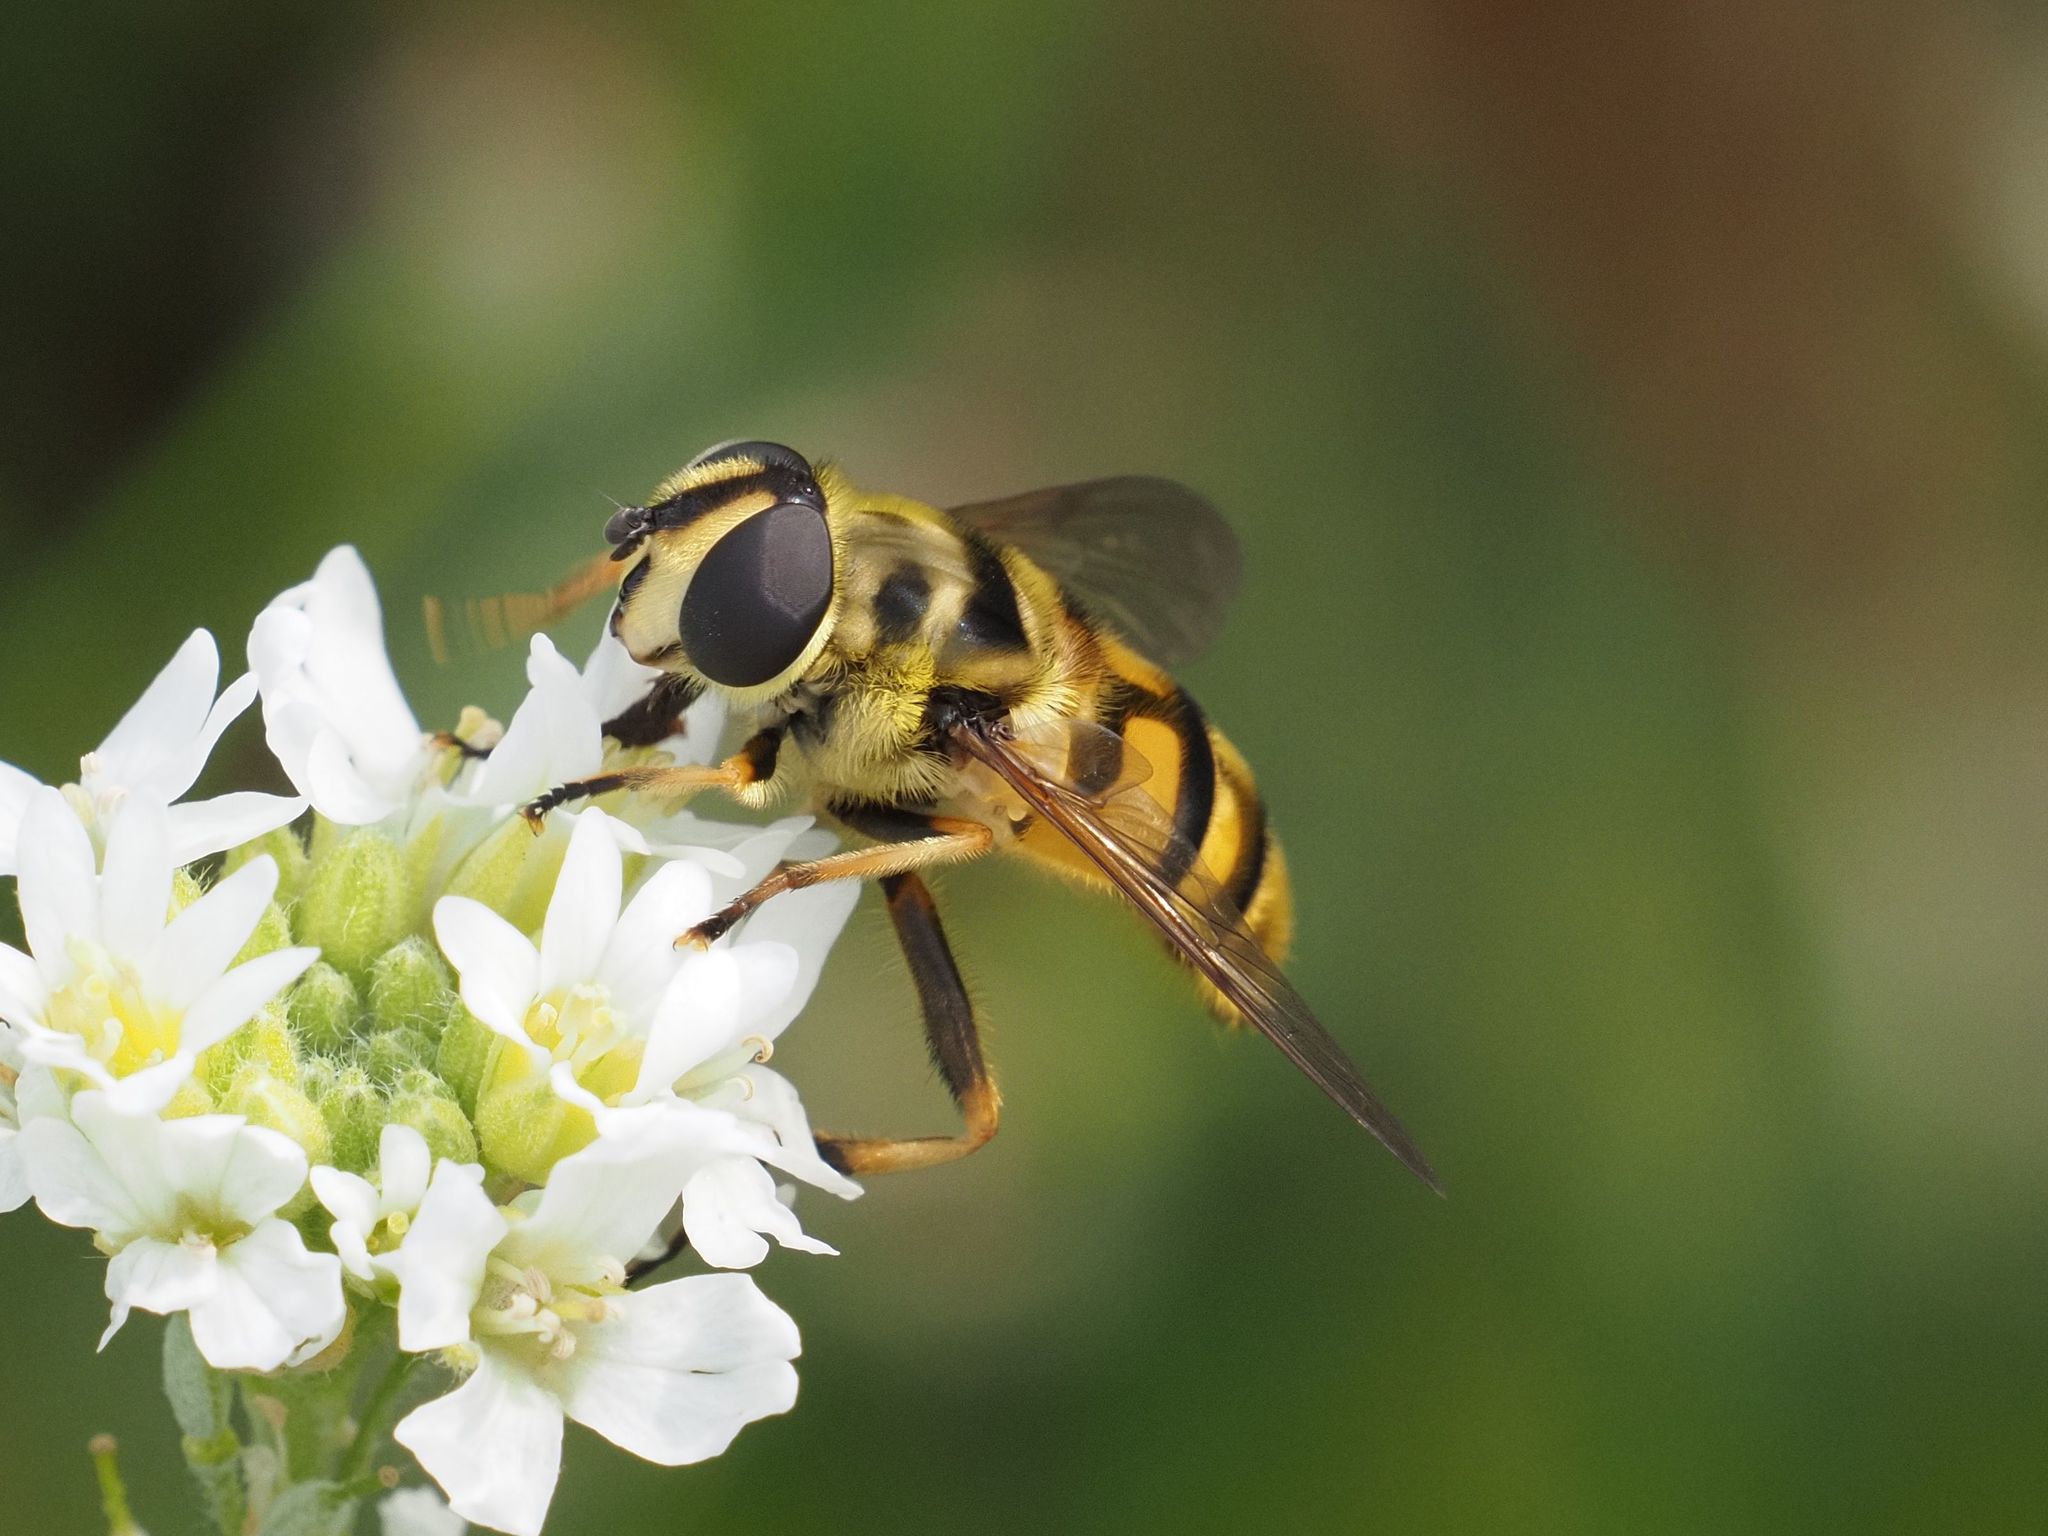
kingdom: Animalia
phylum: Arthropoda
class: Insecta
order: Diptera
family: Syrphidae
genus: Myathropa
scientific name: Myathropa florea
